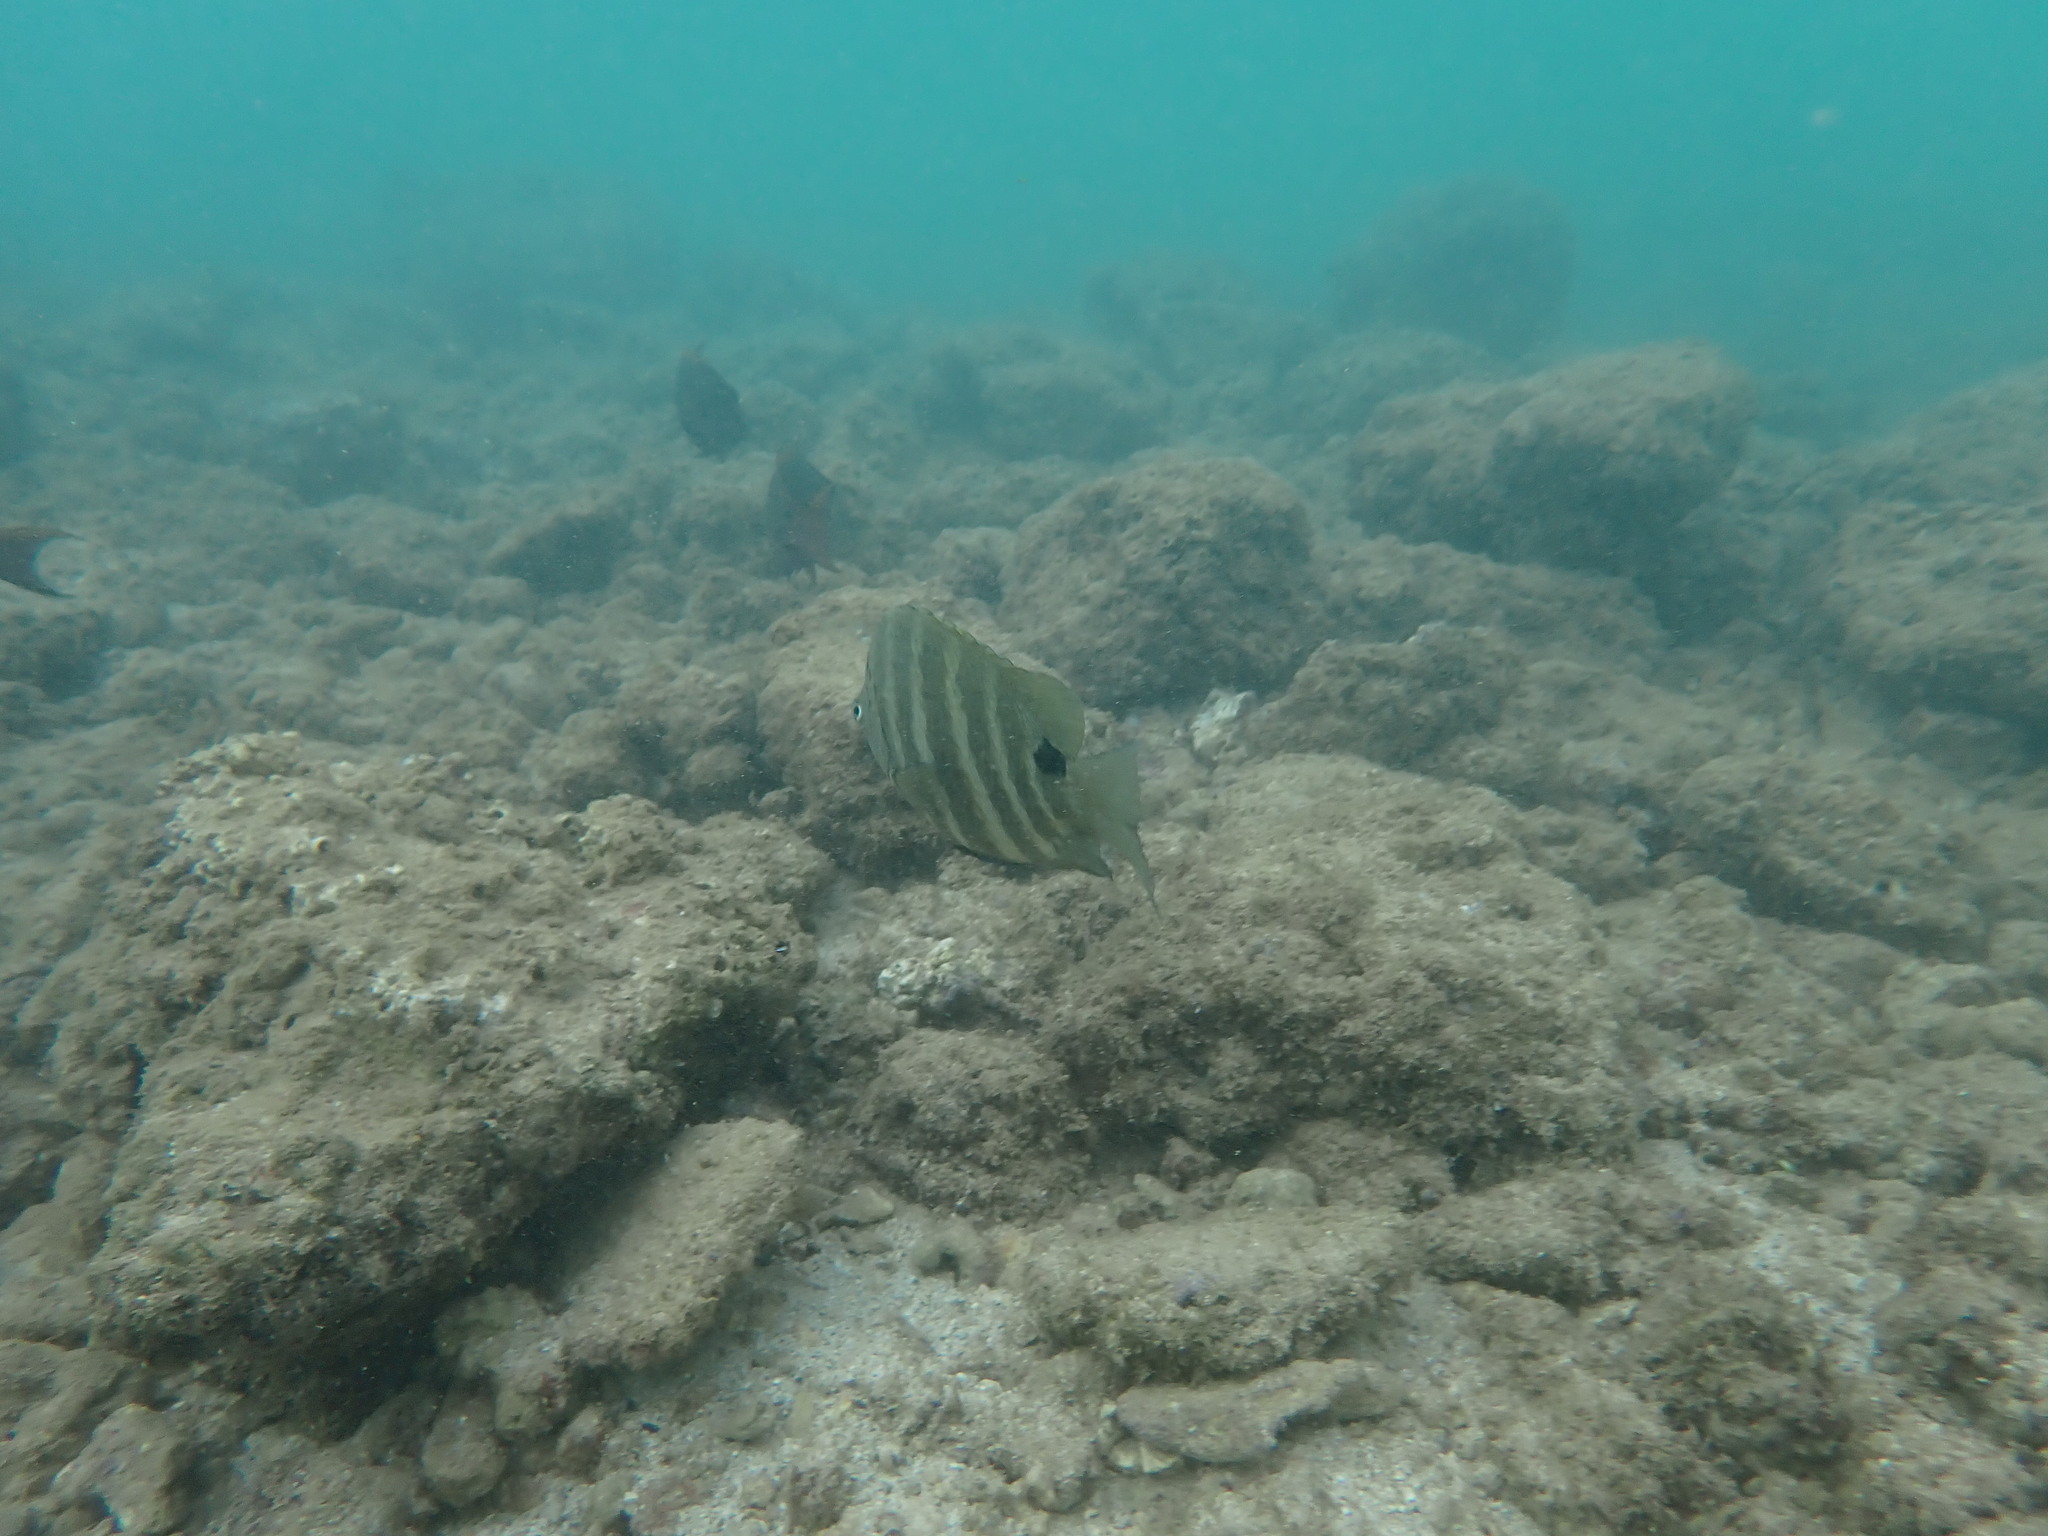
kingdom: Animalia
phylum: Chordata
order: Perciformes
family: Pomacentridae
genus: Abudefduf
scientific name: Abudefduf sordidus
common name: Blackspot sergeant
